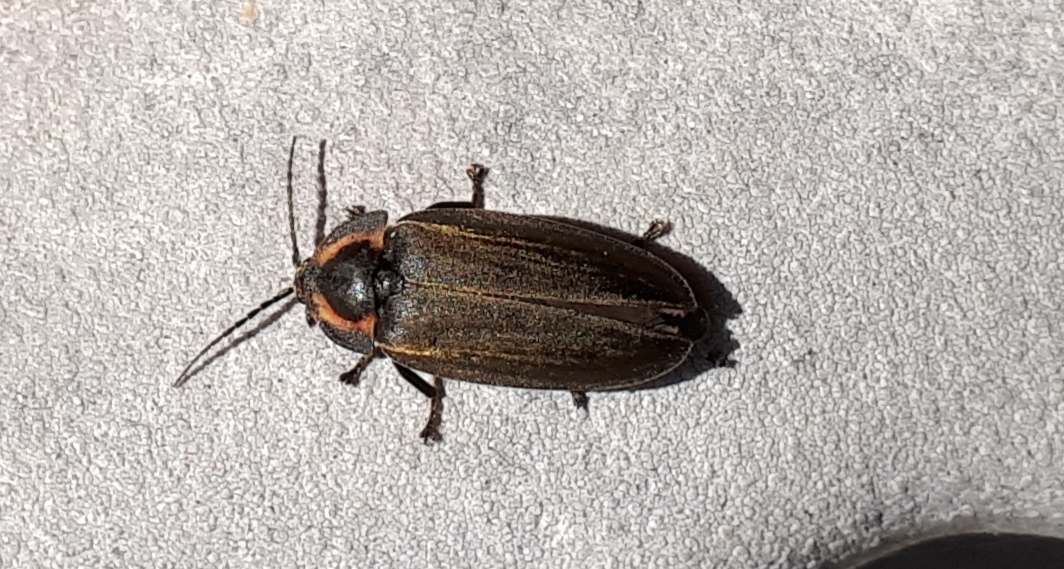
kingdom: Animalia
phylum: Arthropoda
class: Insecta
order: Coleoptera
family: Lampyridae
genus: Photinus
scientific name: Photinus corrusca
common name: Winter firefly
